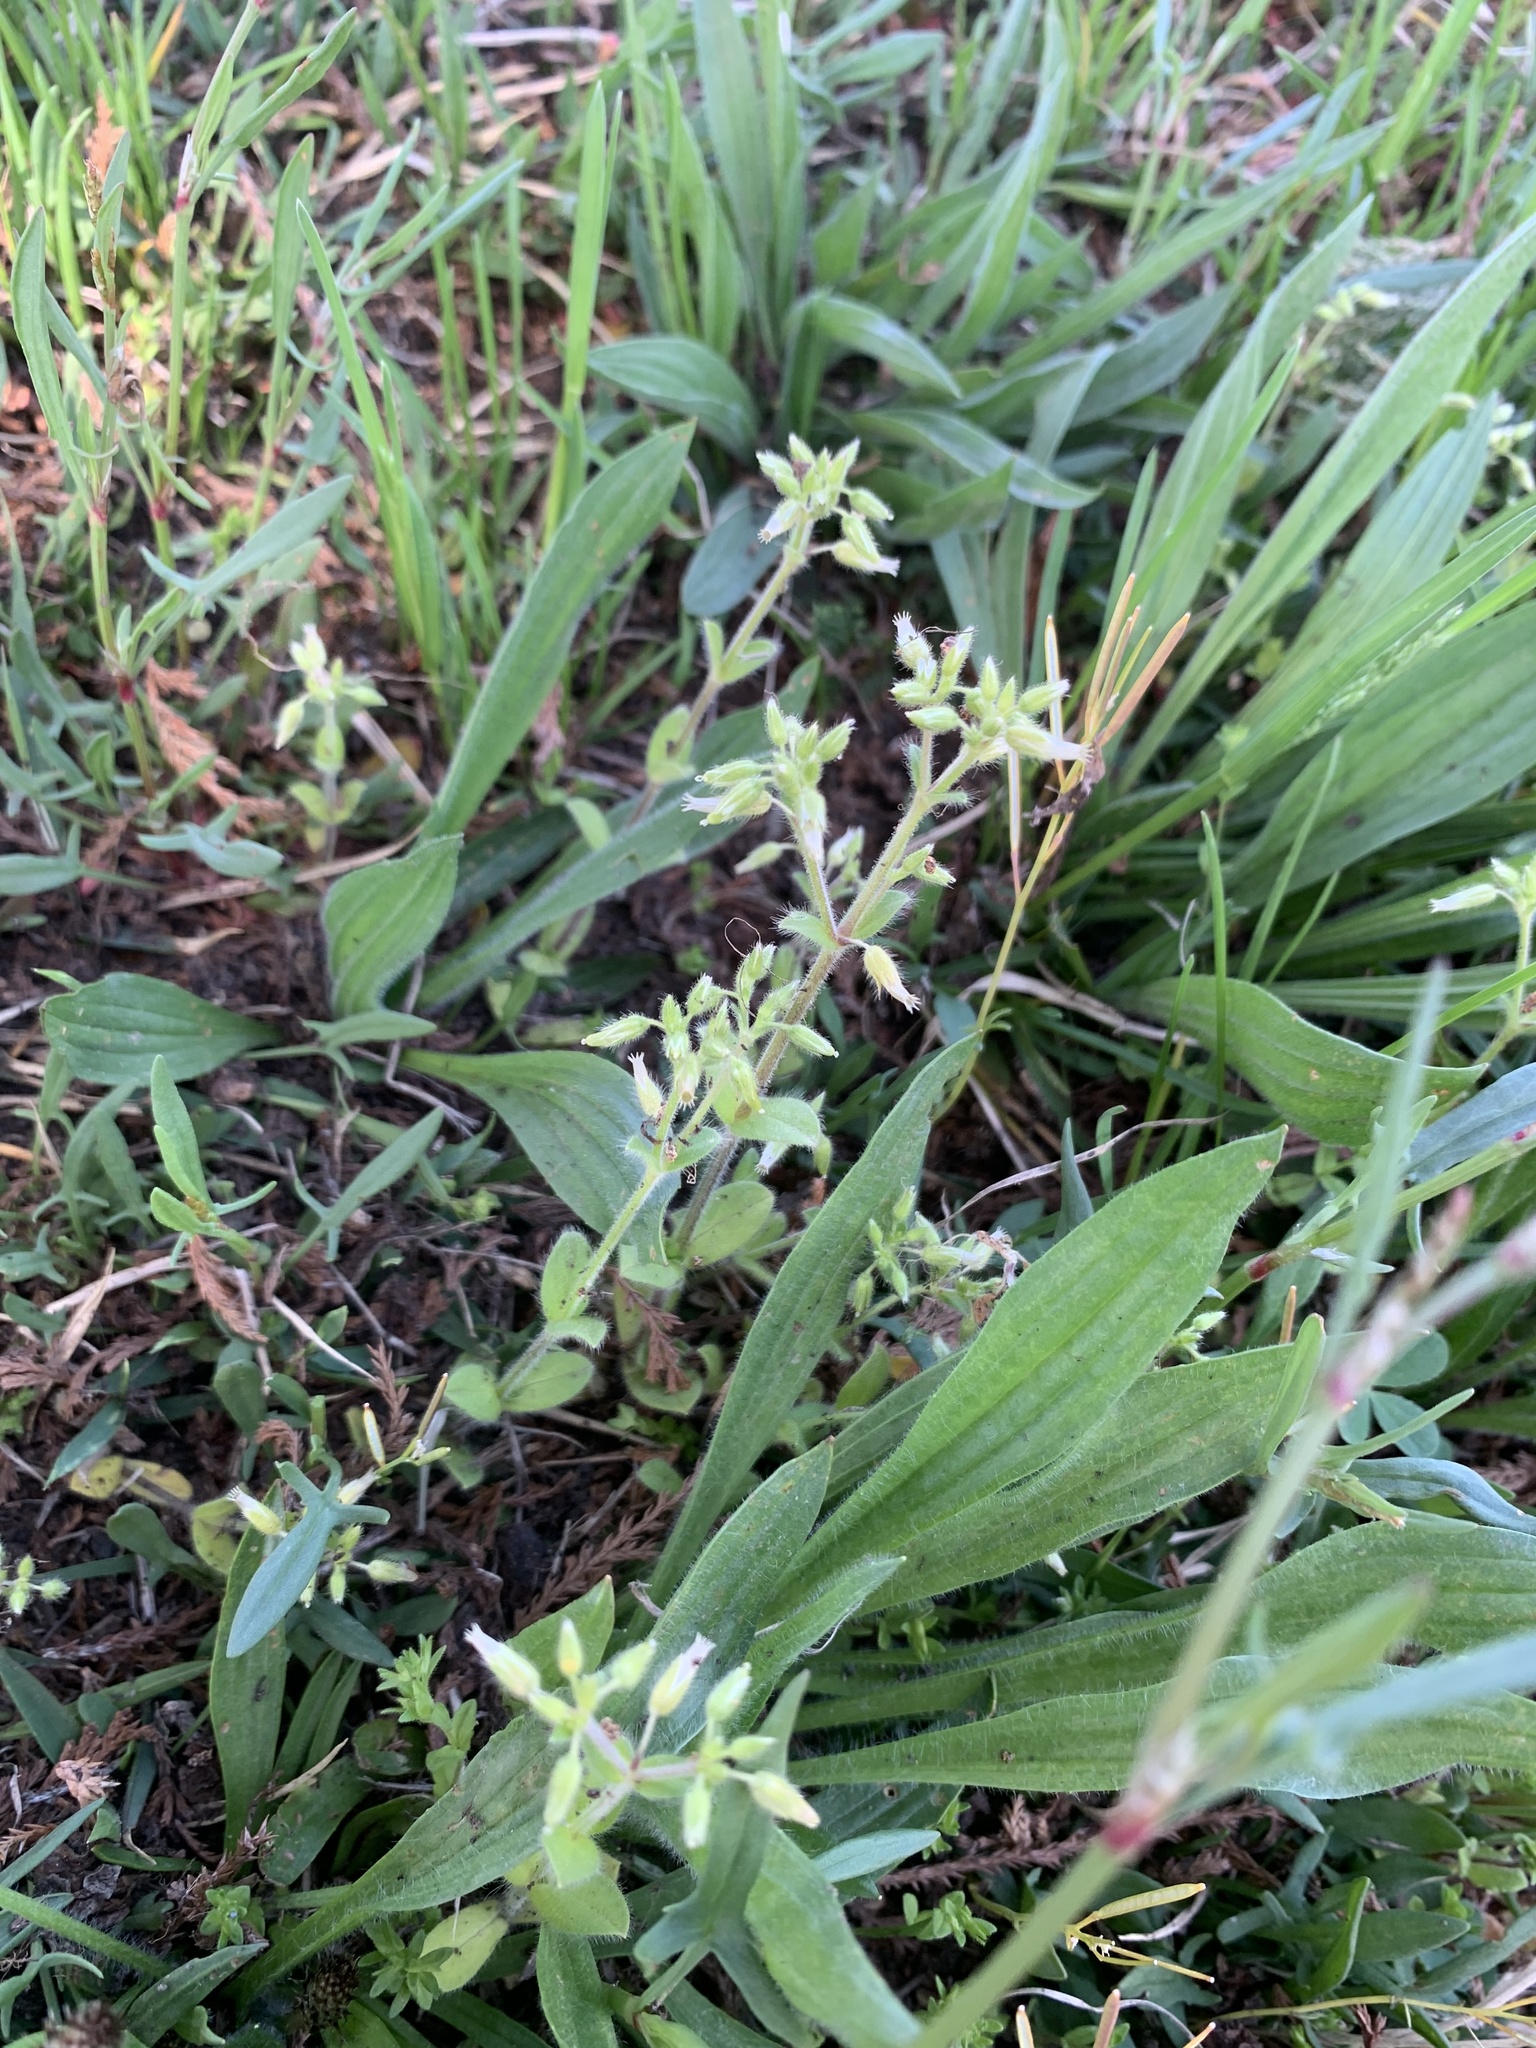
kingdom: Plantae
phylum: Tracheophyta
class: Magnoliopsida
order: Caryophyllales
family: Caryophyllaceae
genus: Cerastium
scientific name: Cerastium glomeratum
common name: Sticky chickweed
